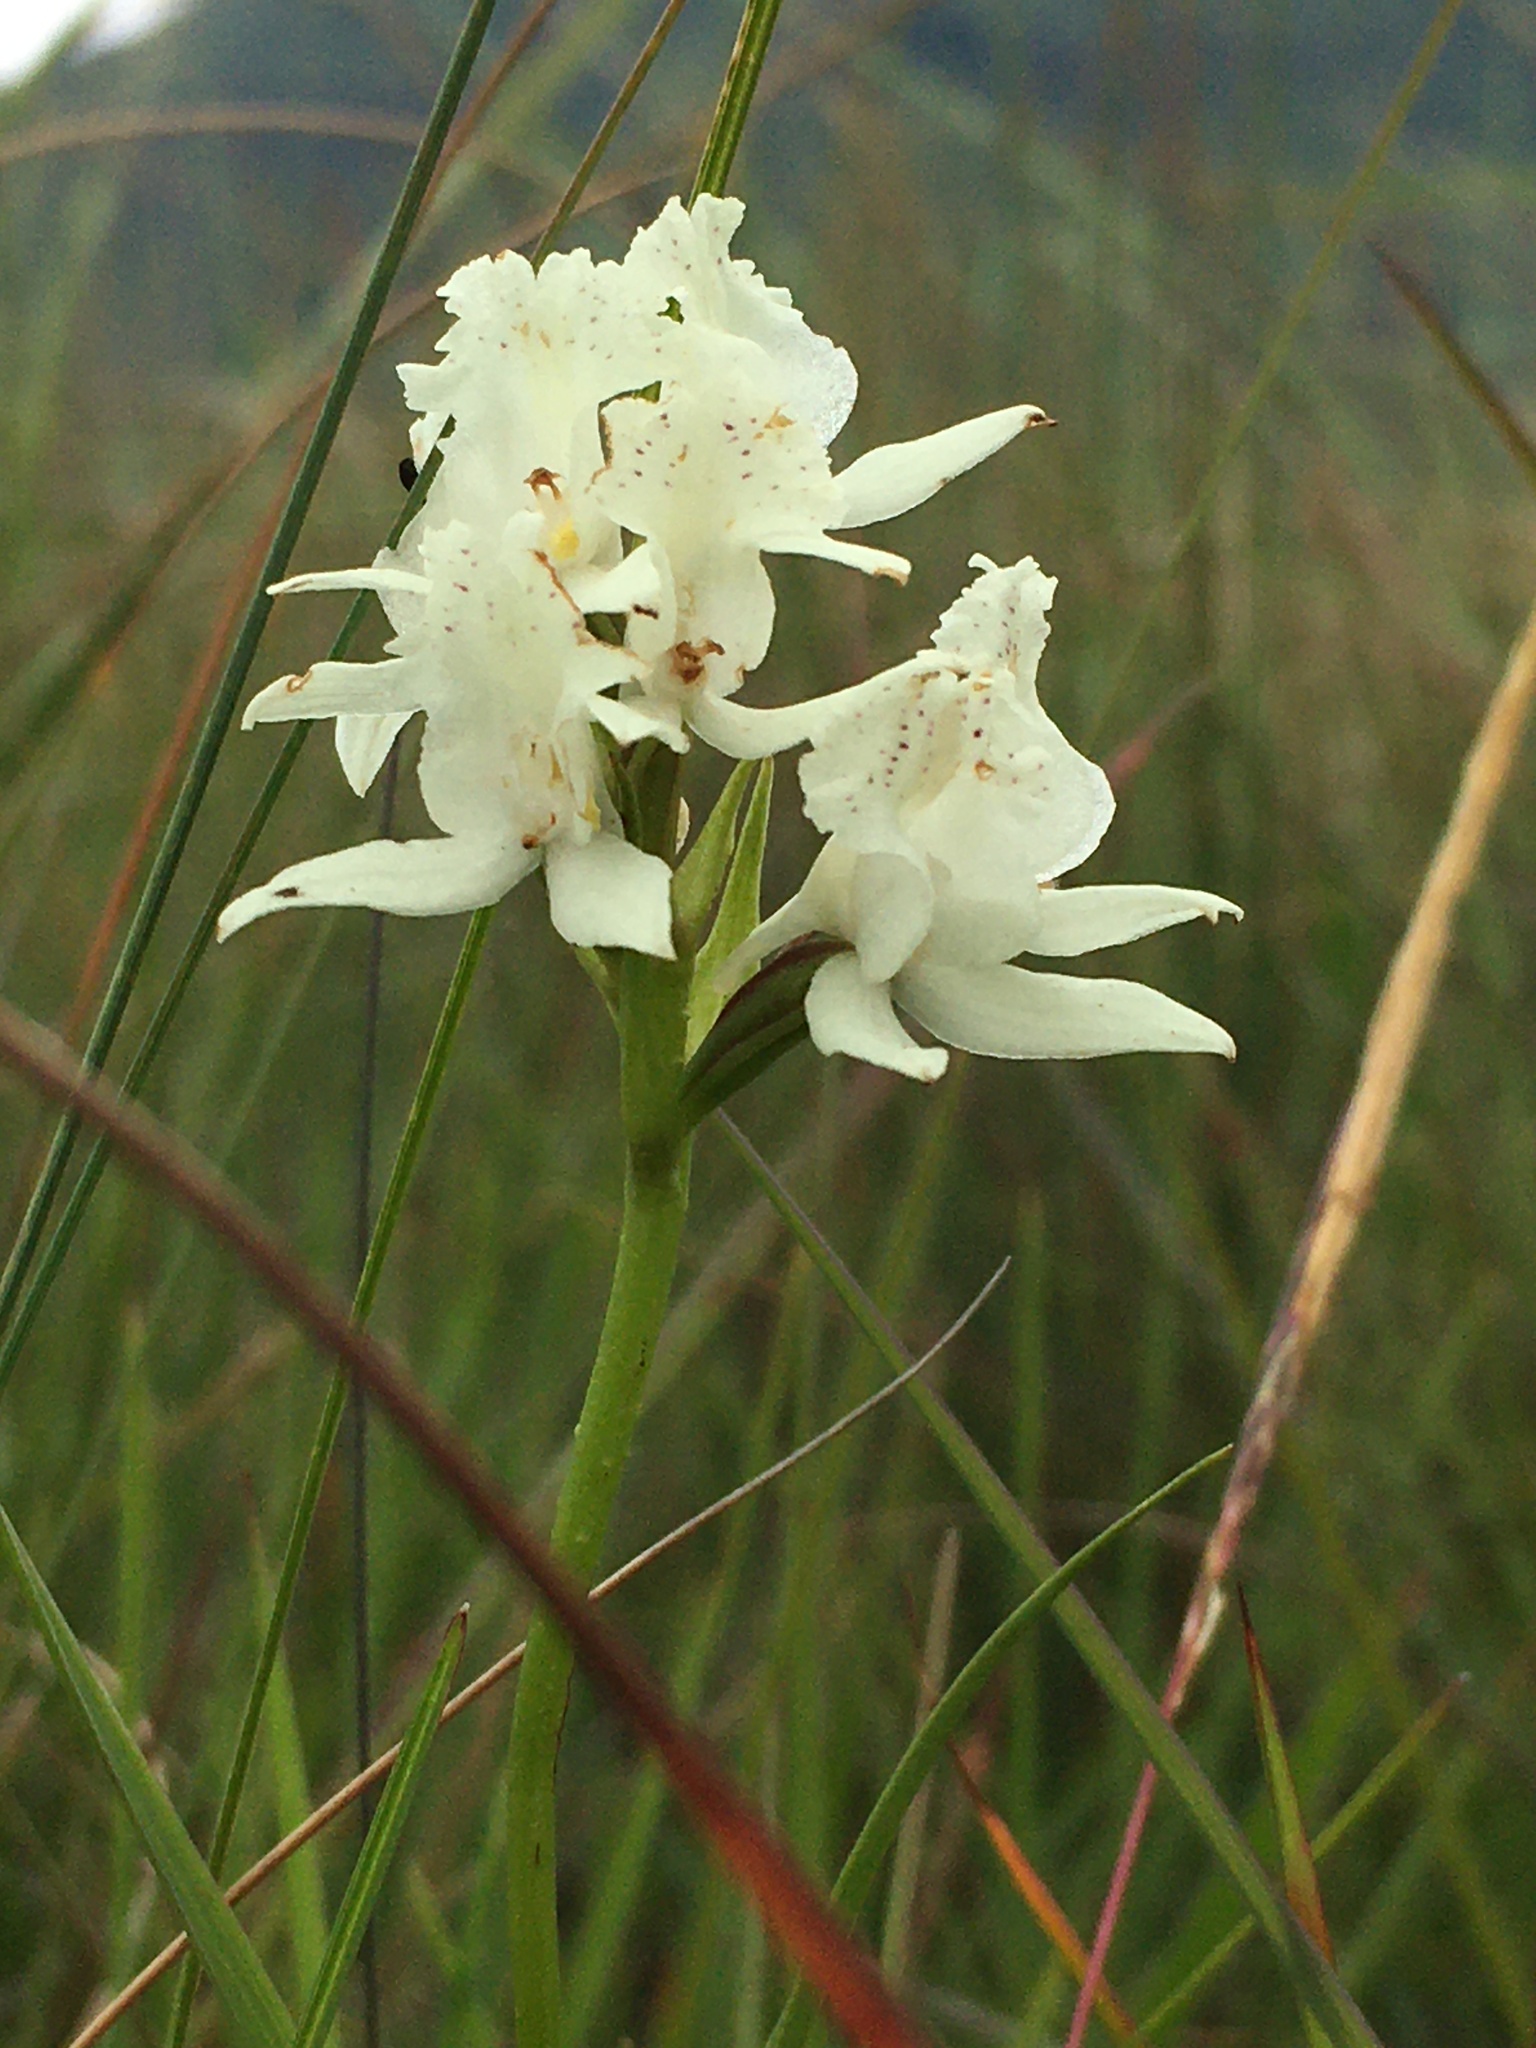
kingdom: Plantae
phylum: Tracheophyta
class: Liliopsida
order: Asparagales
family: Orchidaceae
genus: Brownleea
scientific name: Brownleea galpinii
